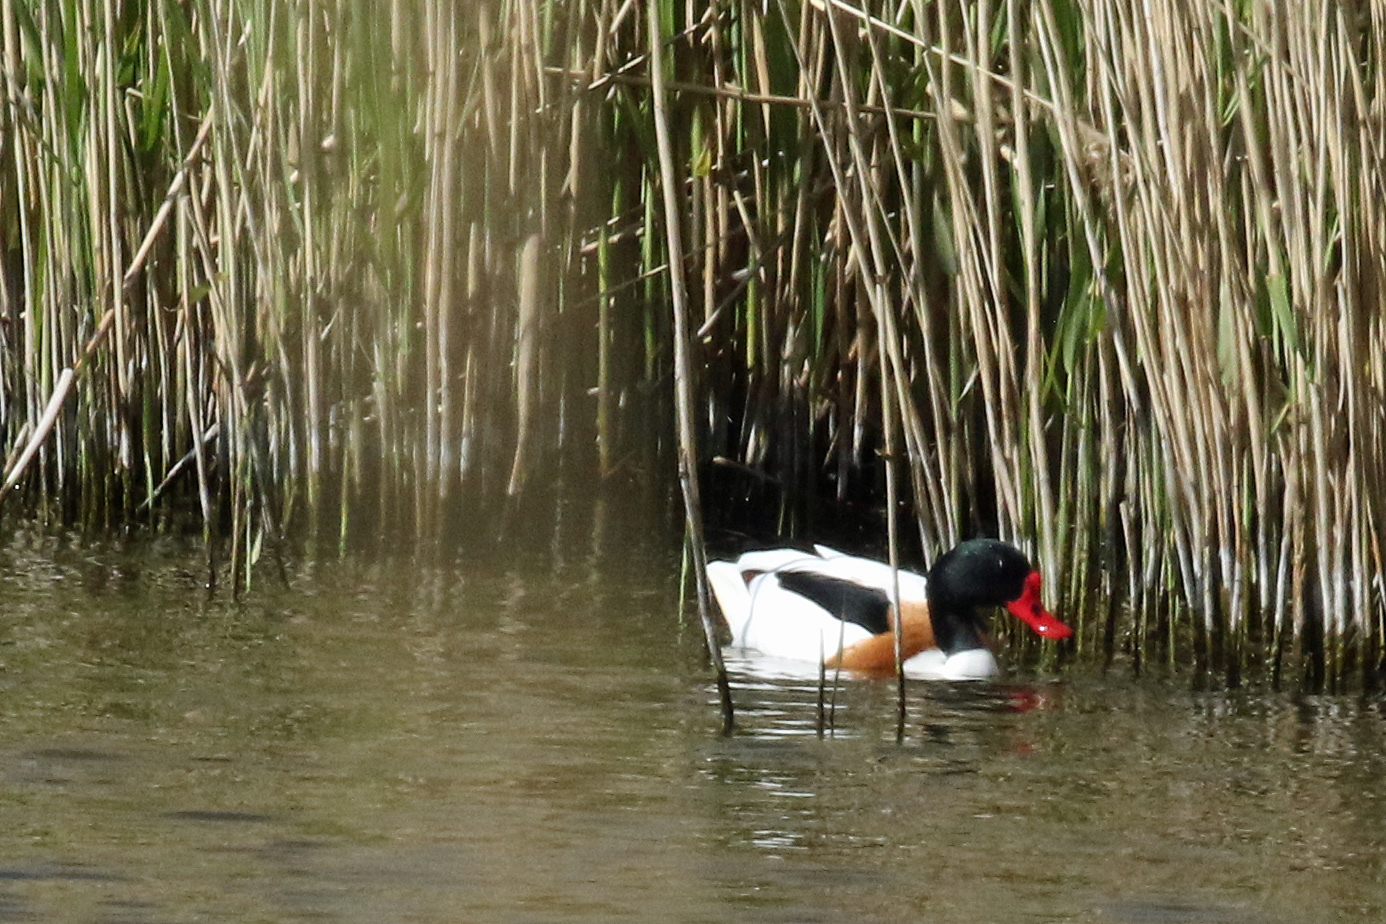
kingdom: Animalia
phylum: Chordata
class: Aves
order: Anseriformes
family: Anatidae
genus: Tadorna
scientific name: Tadorna tadorna
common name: Common shelduck
